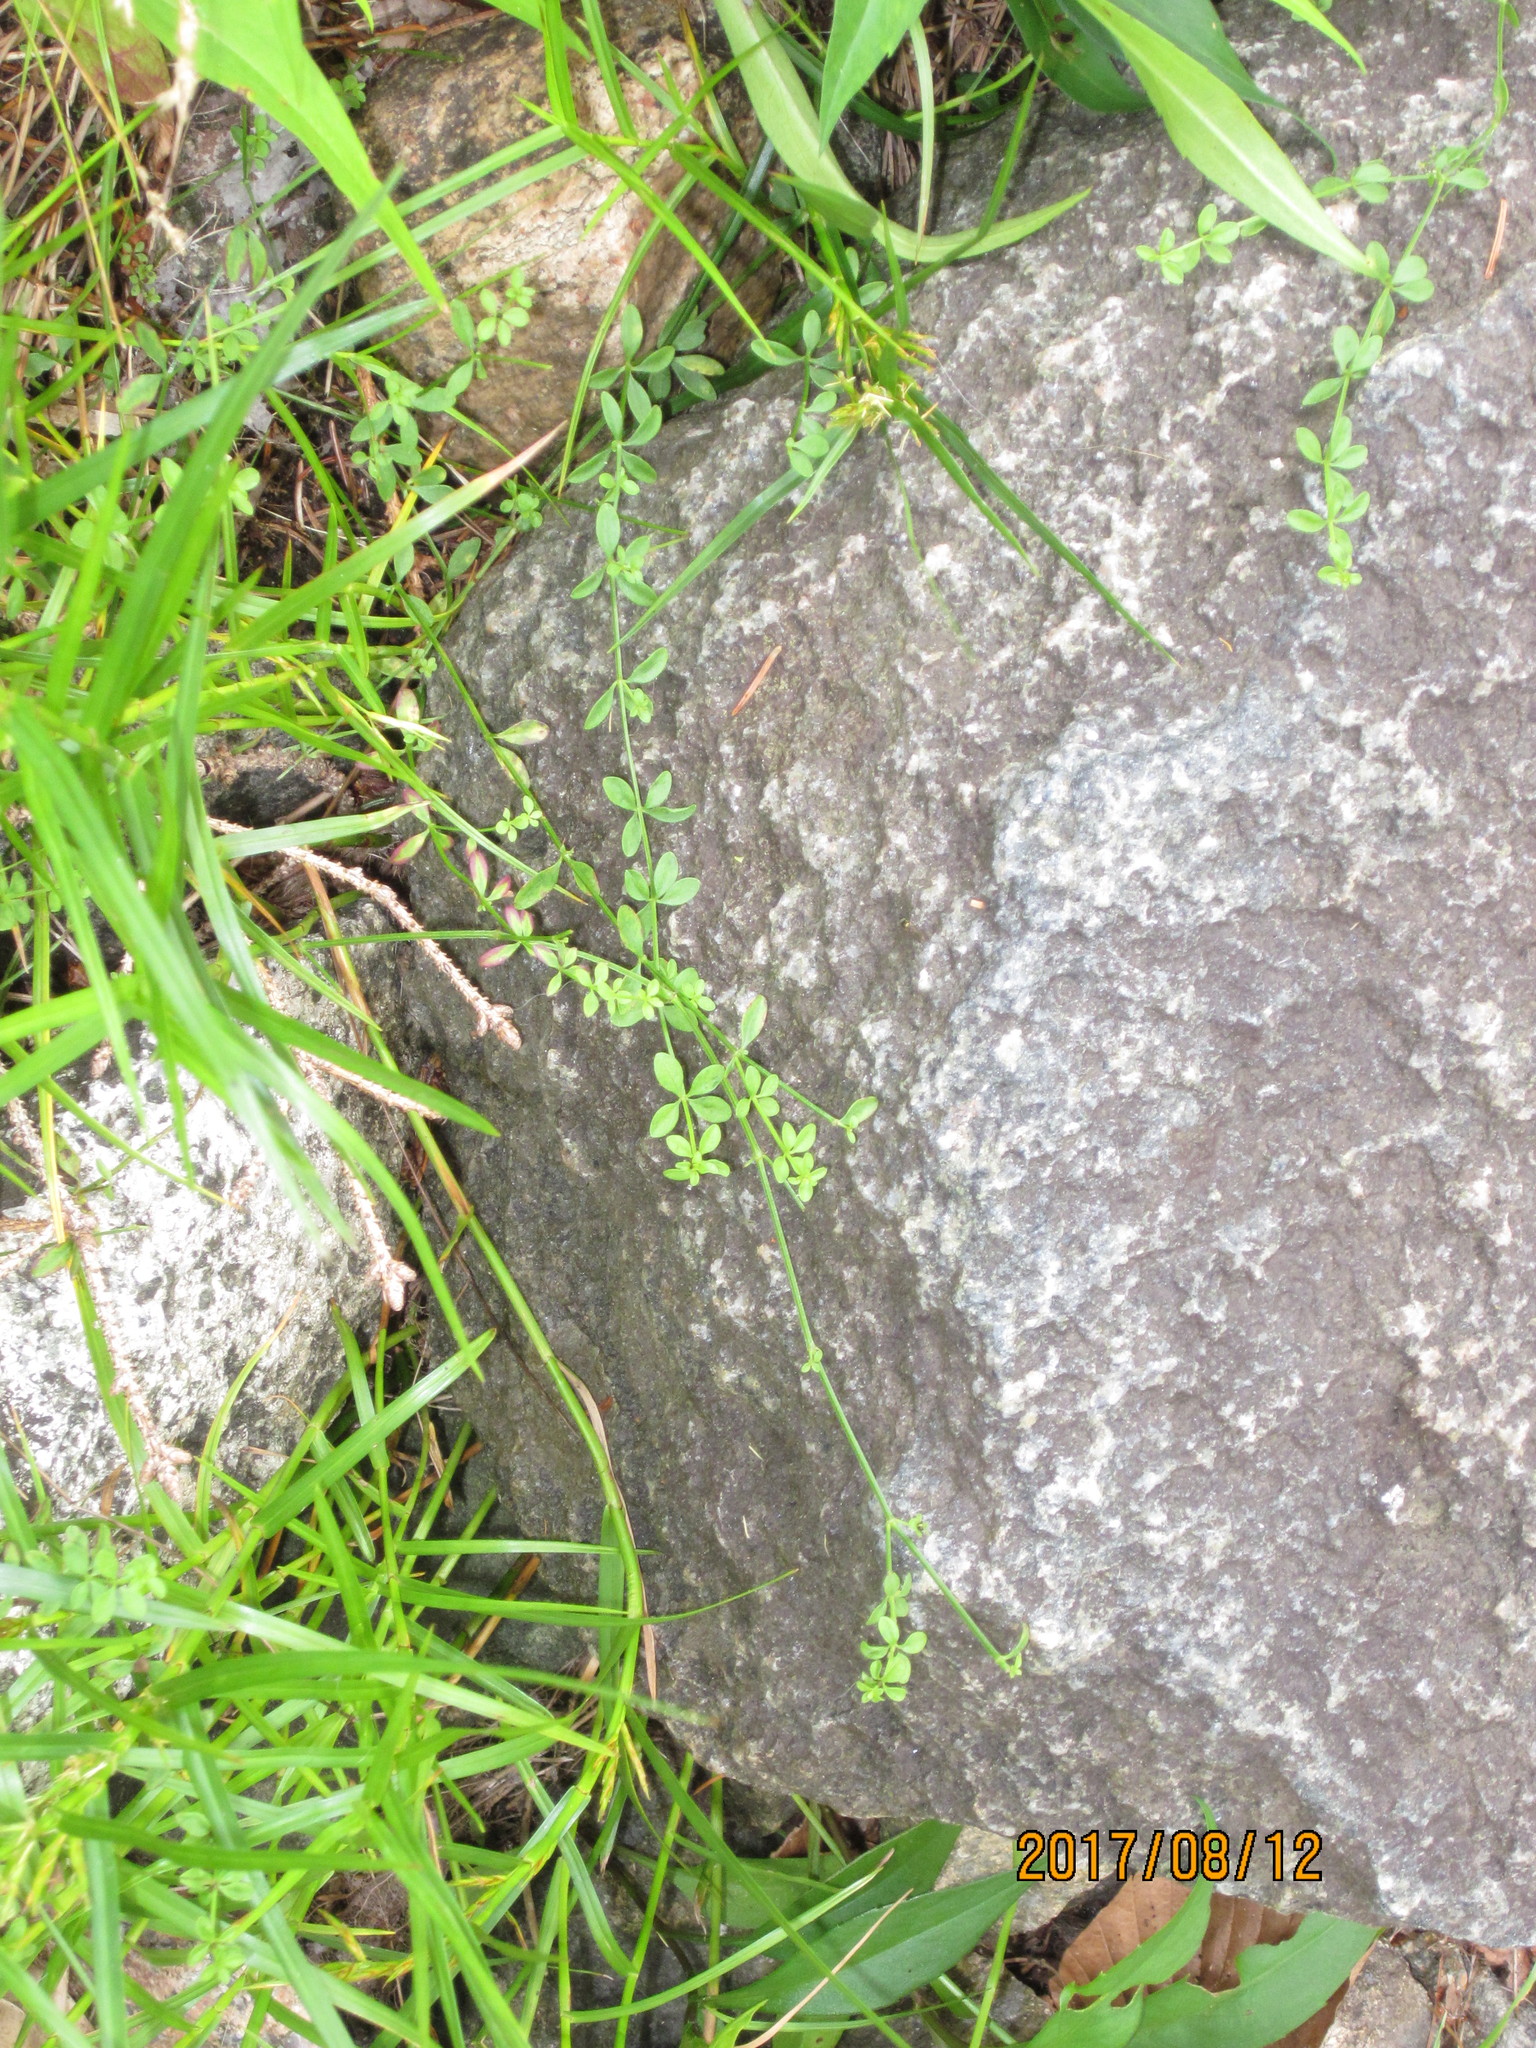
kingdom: Plantae
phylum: Tracheophyta
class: Magnoliopsida
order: Gentianales
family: Rubiaceae
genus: Galium
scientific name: Galium palustre
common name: Common marsh-bedstraw
